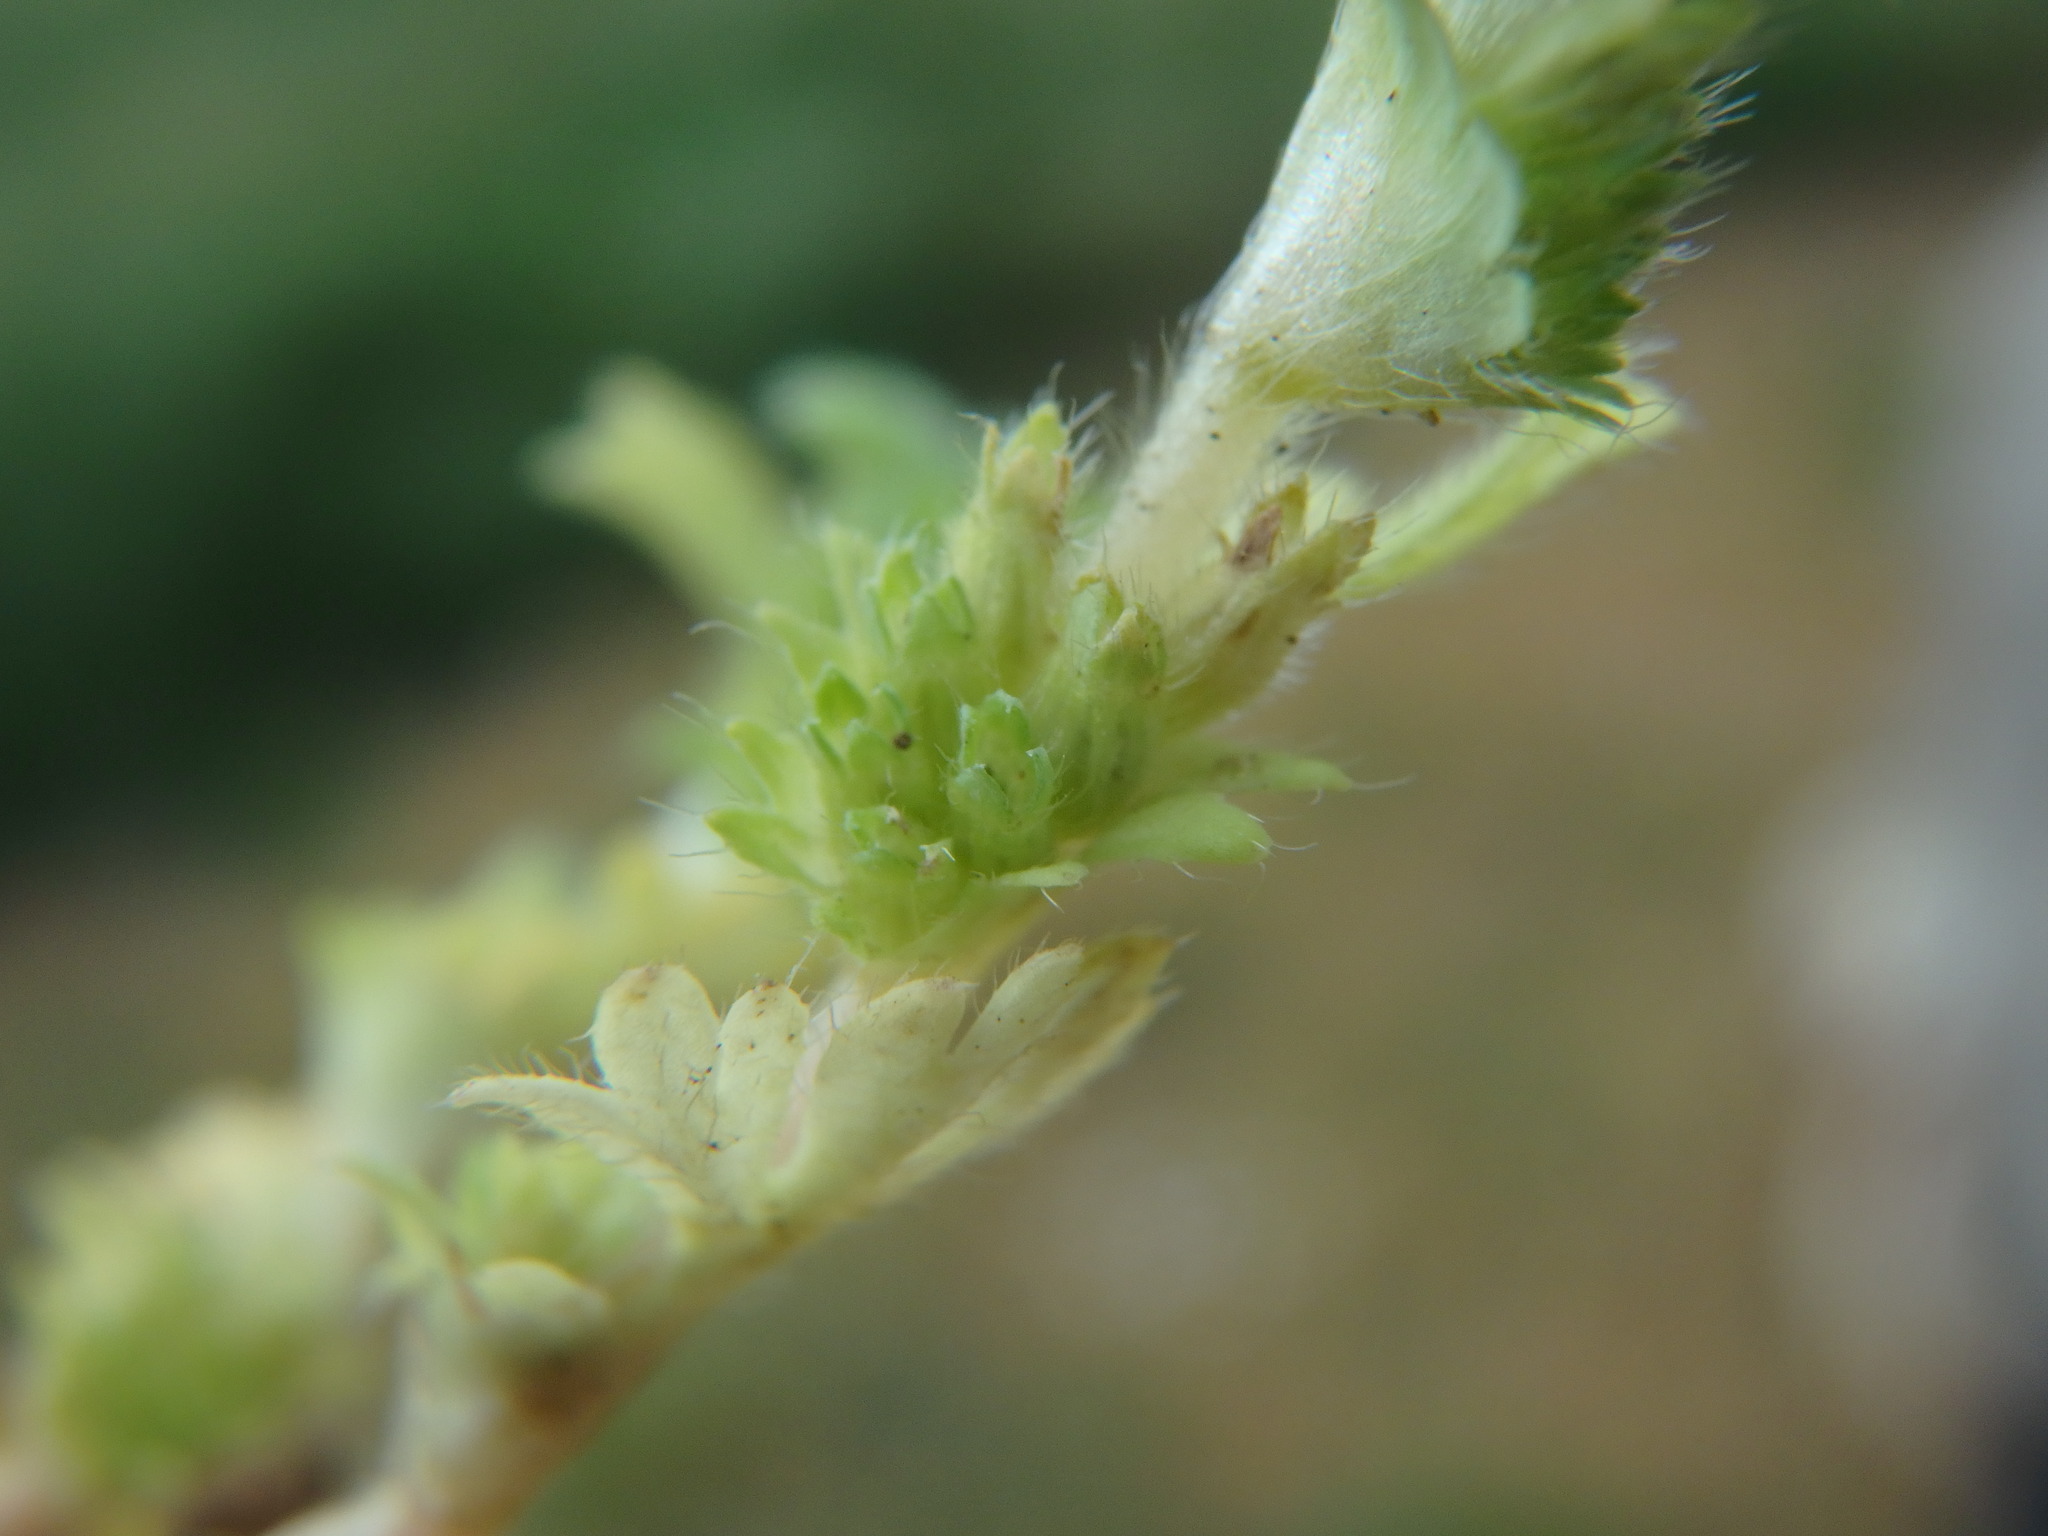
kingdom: Plantae
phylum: Tracheophyta
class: Magnoliopsida
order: Rosales
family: Rosaceae
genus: Aphanes
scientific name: Aphanes australis
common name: Slender parsley-piert
